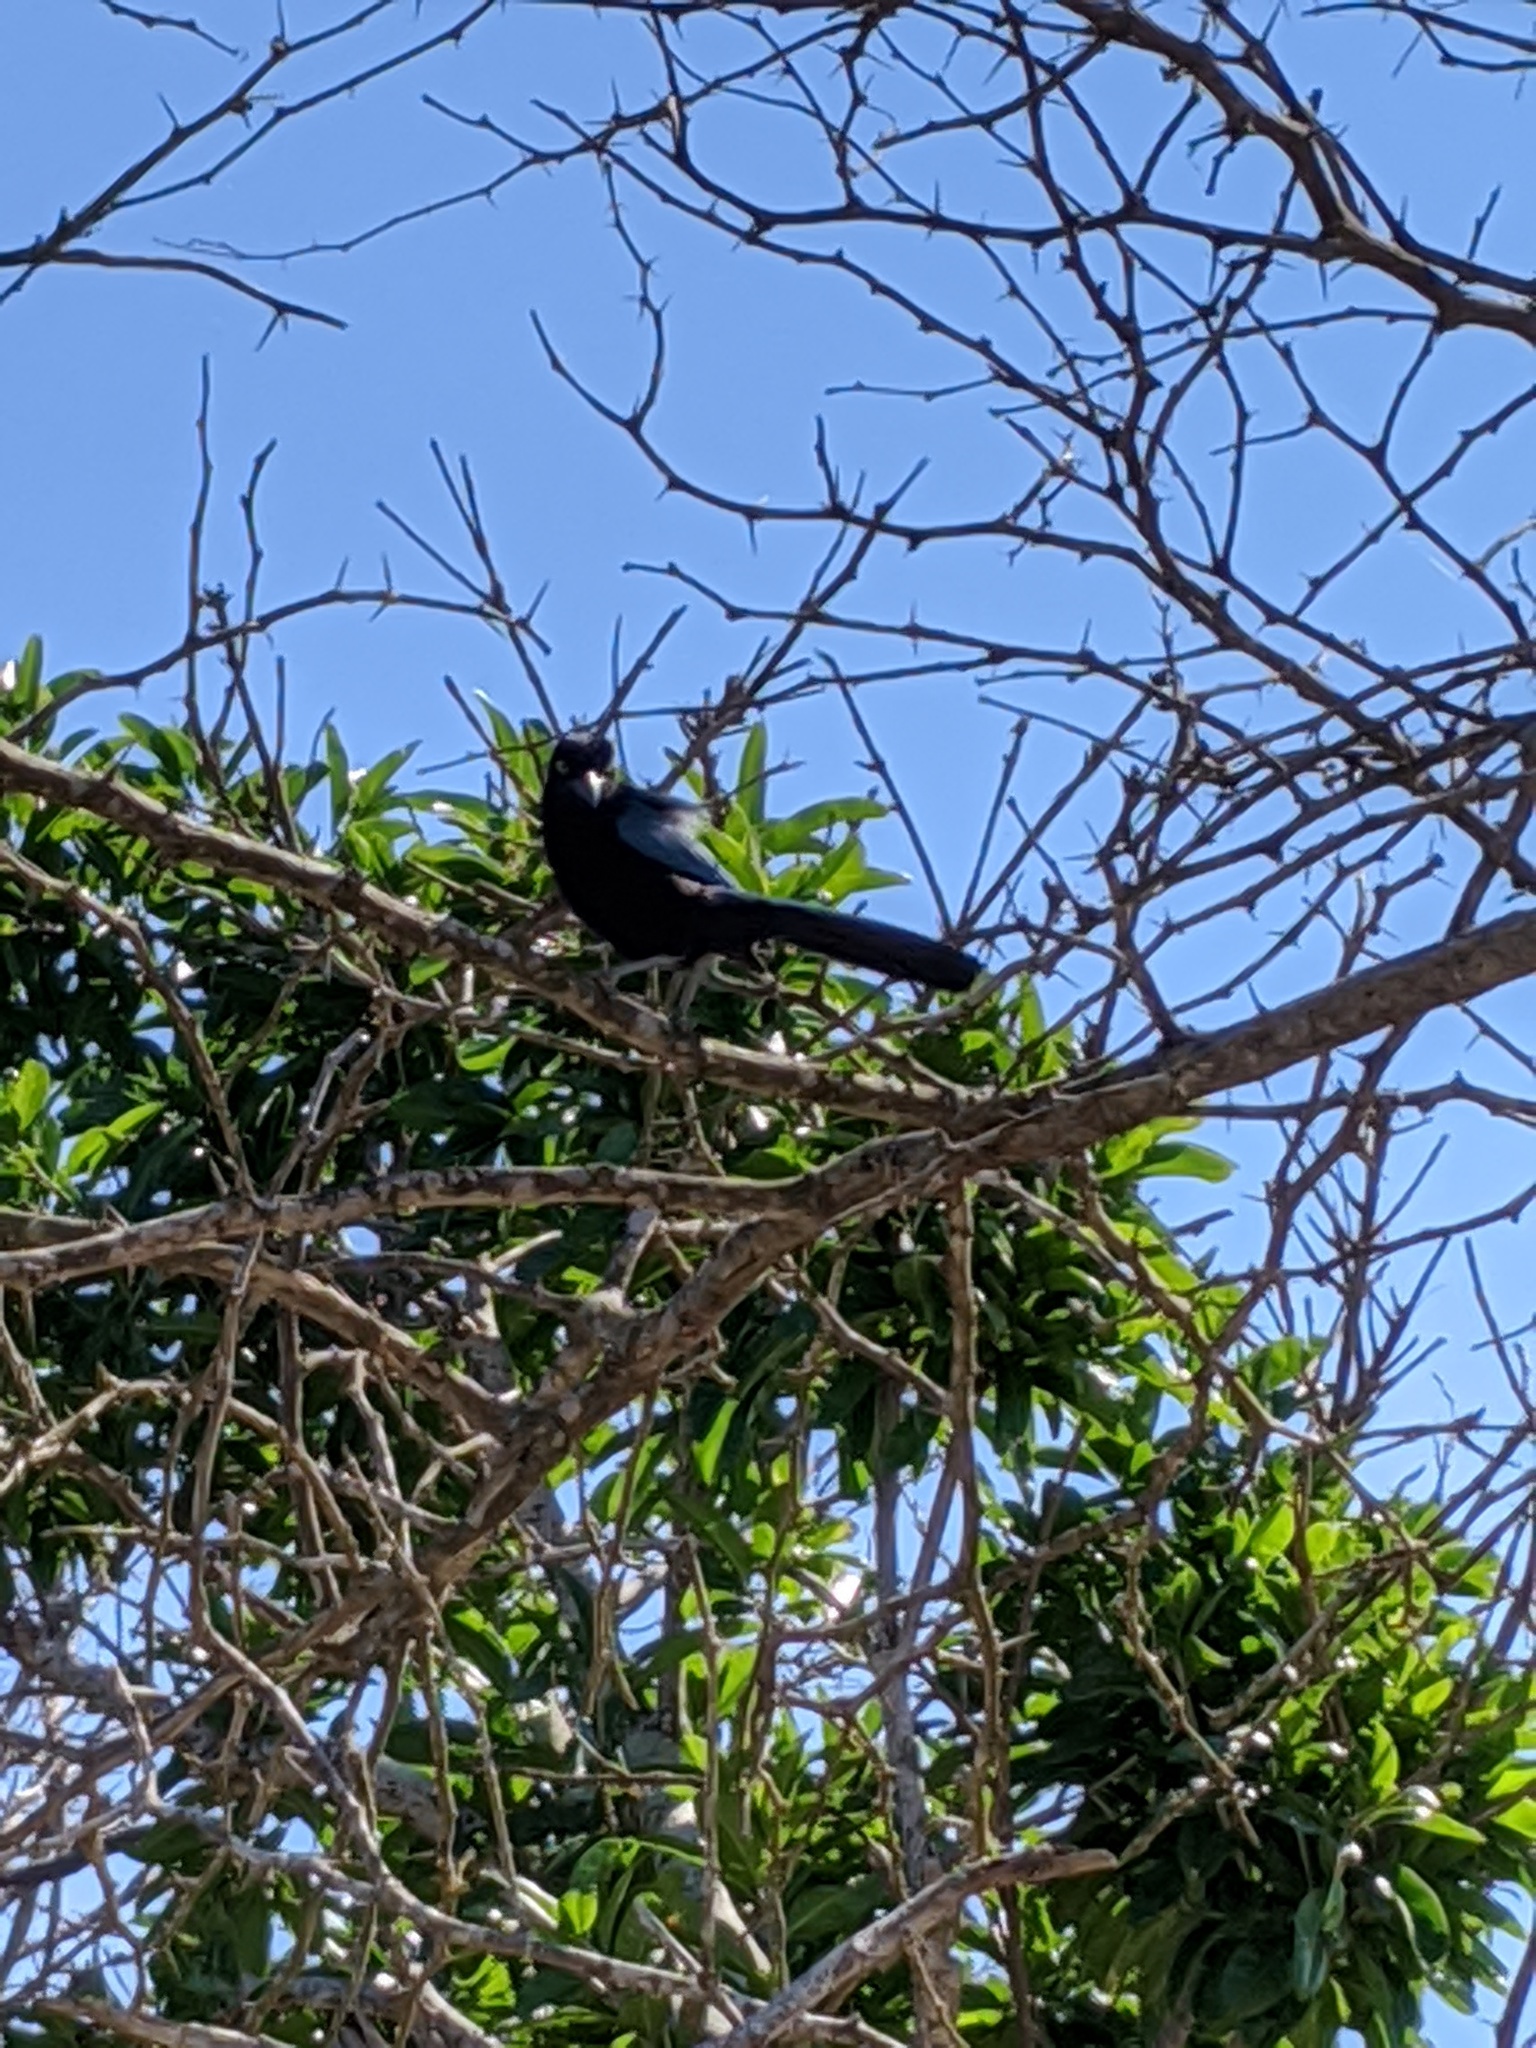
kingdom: Animalia
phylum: Chordata
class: Aves
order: Passeriformes
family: Corvidae
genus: Cyanocorax
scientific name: Cyanocorax sanblasianus
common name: San blas jay
